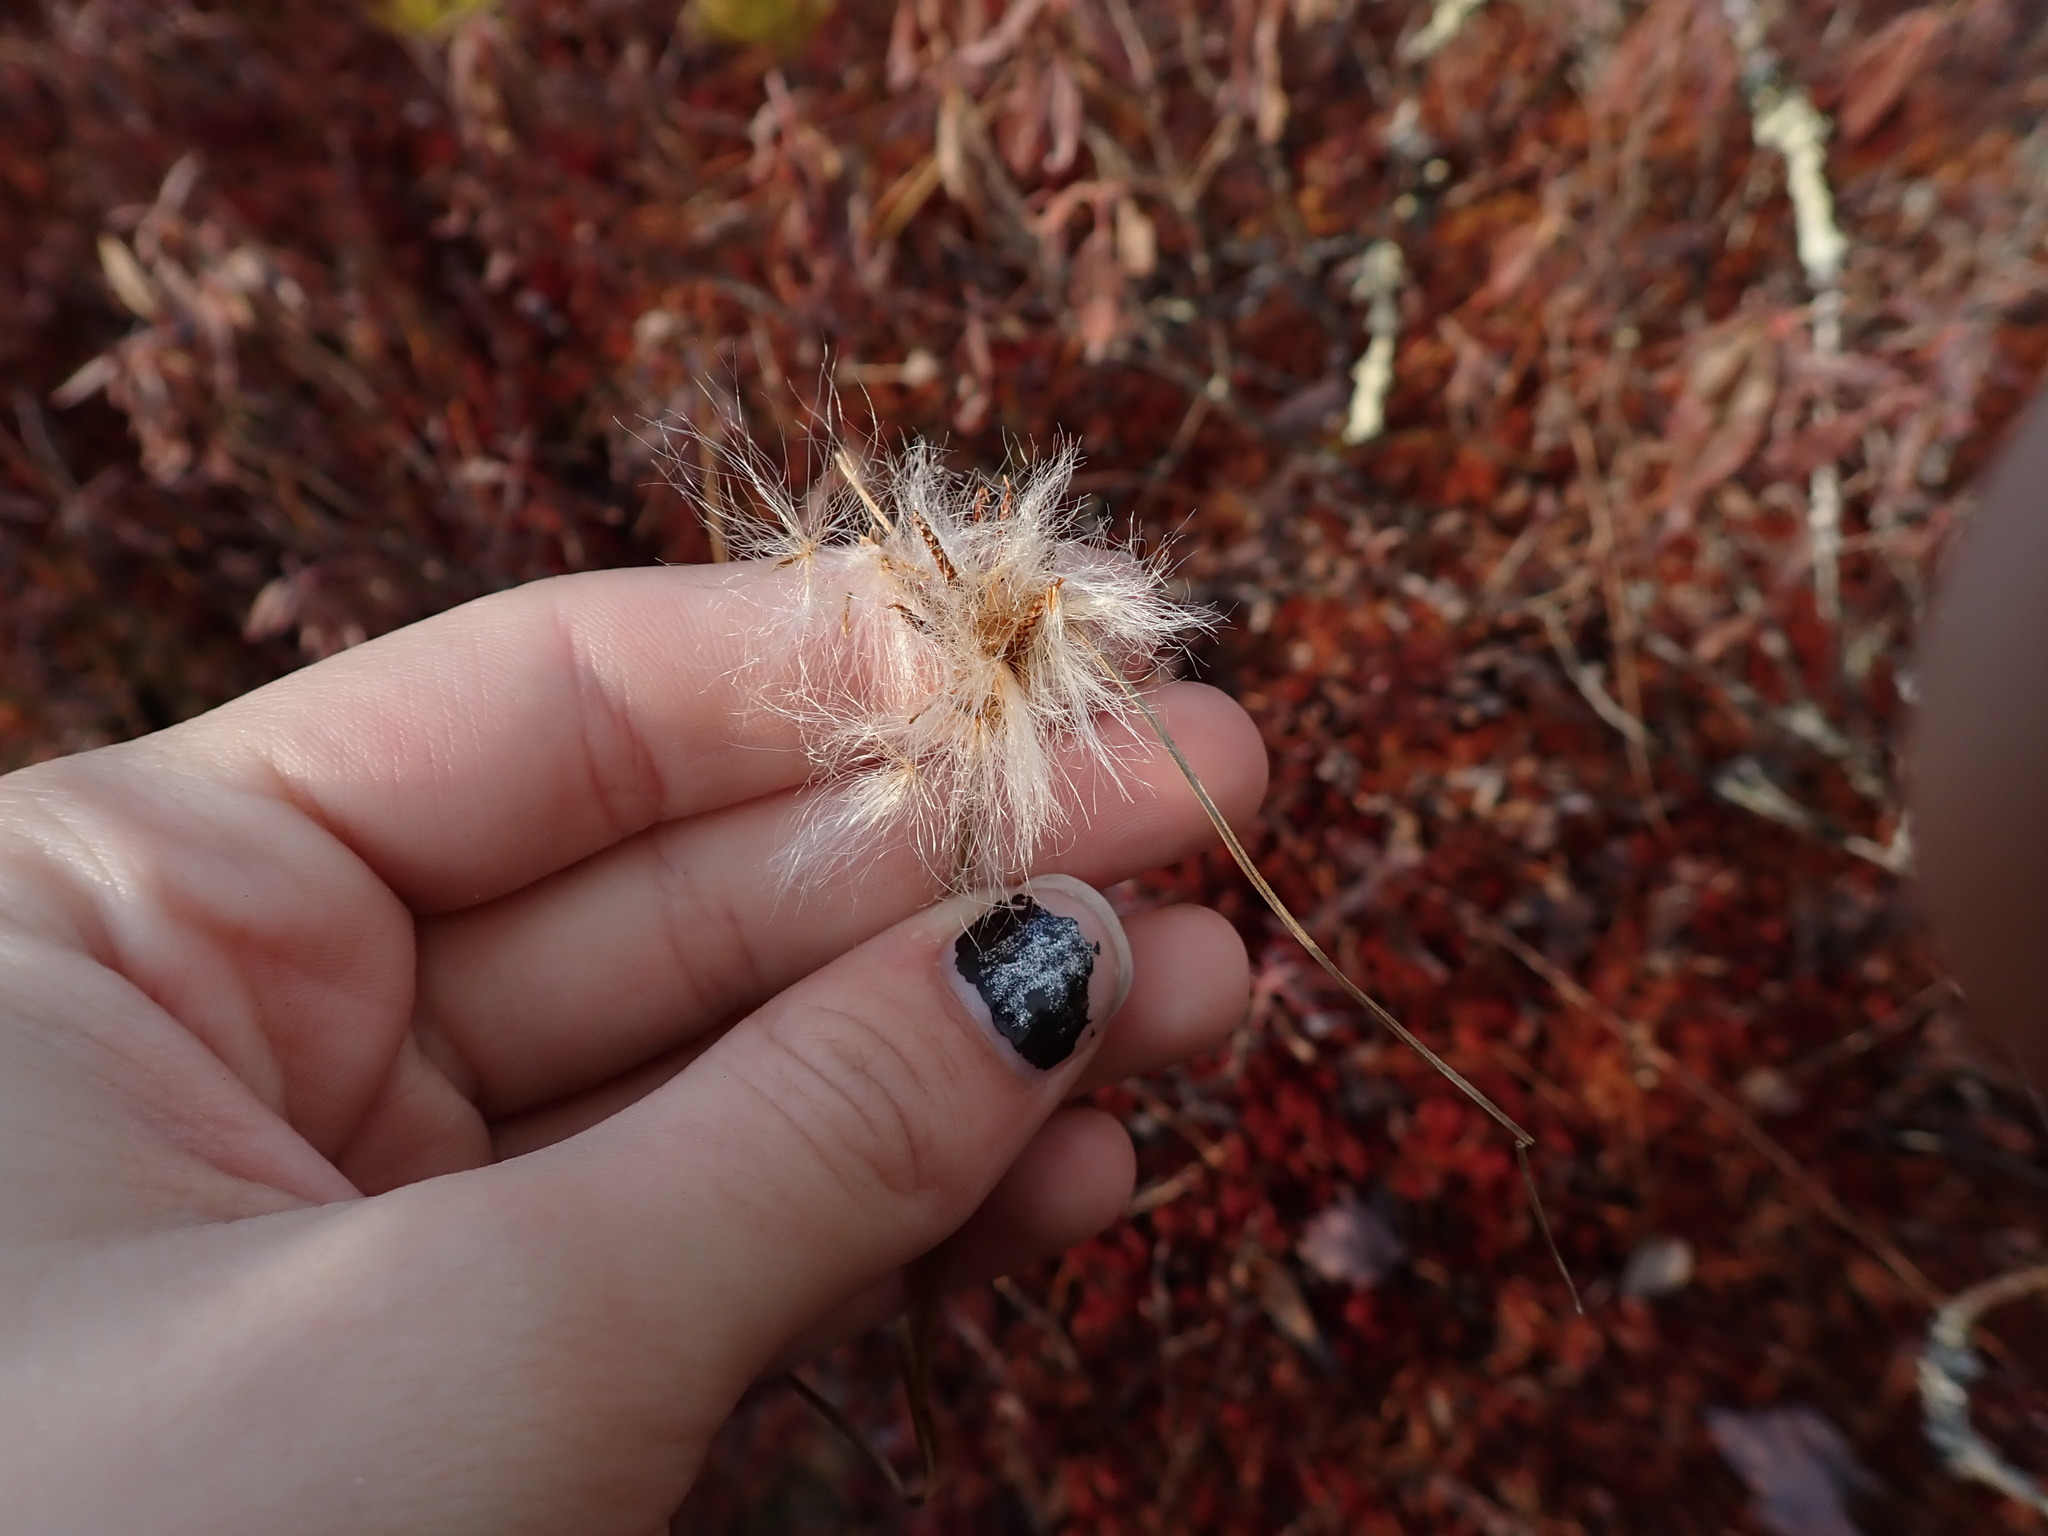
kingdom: Plantae
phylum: Tracheophyta
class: Liliopsida
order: Poales
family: Cyperaceae
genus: Eriophorum
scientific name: Eriophorum virginicum
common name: Tawny cottongrass
